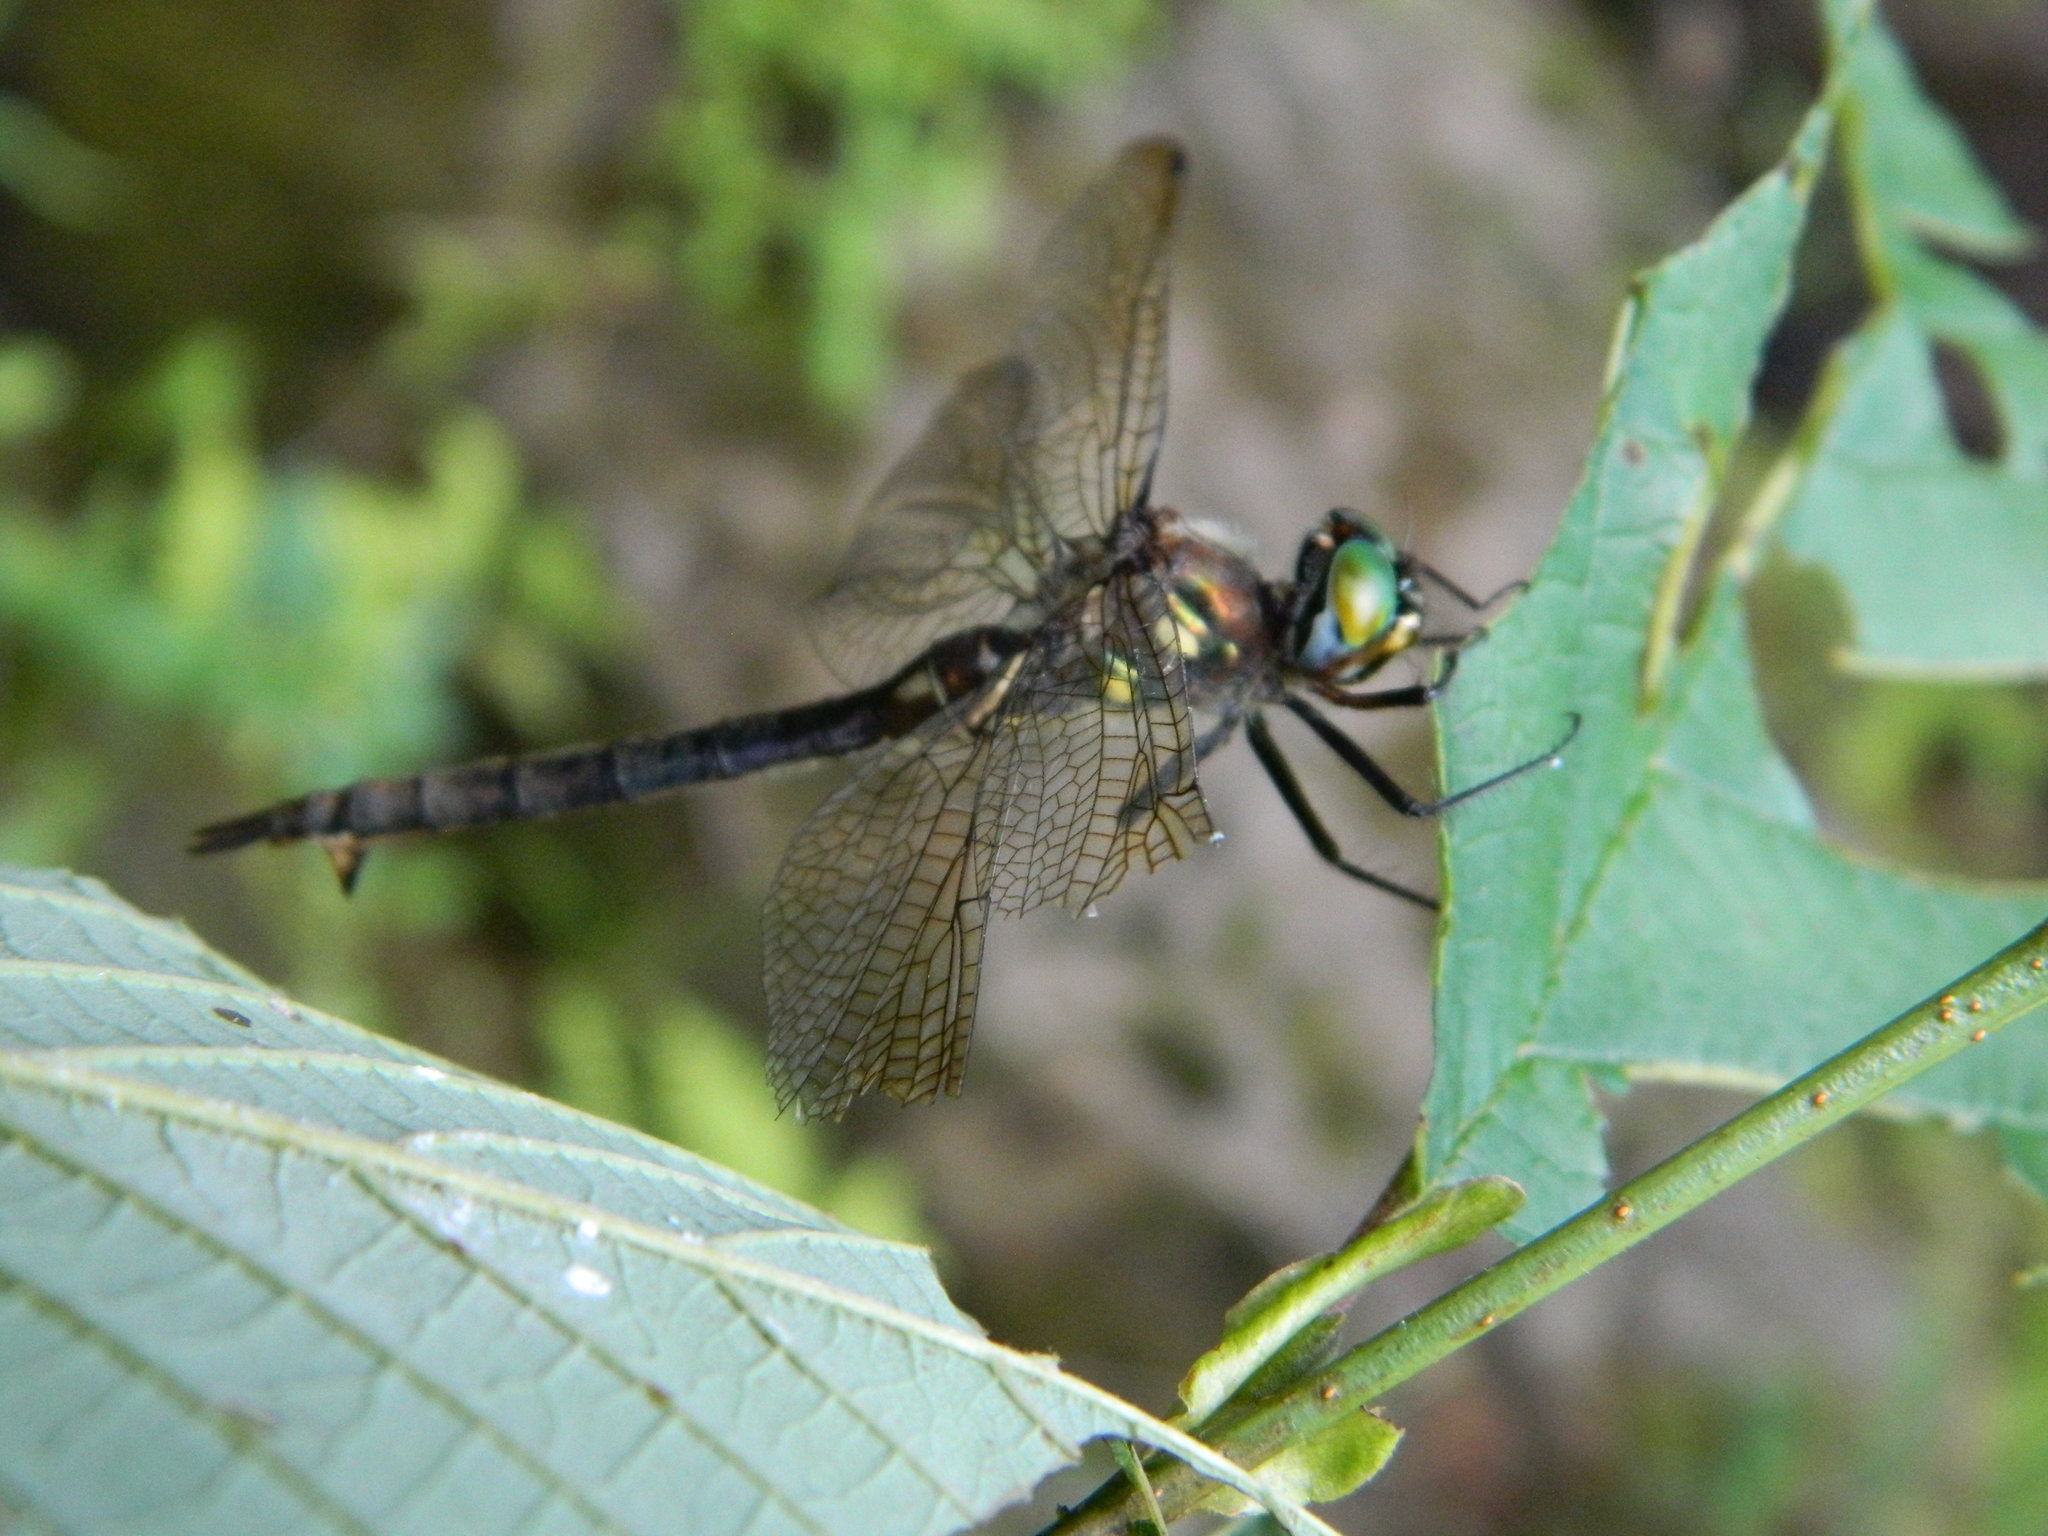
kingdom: Animalia
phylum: Arthropoda
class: Insecta
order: Odonata
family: Corduliidae
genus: Somatochlora
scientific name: Somatochlora minor
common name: Ocellated emerald
